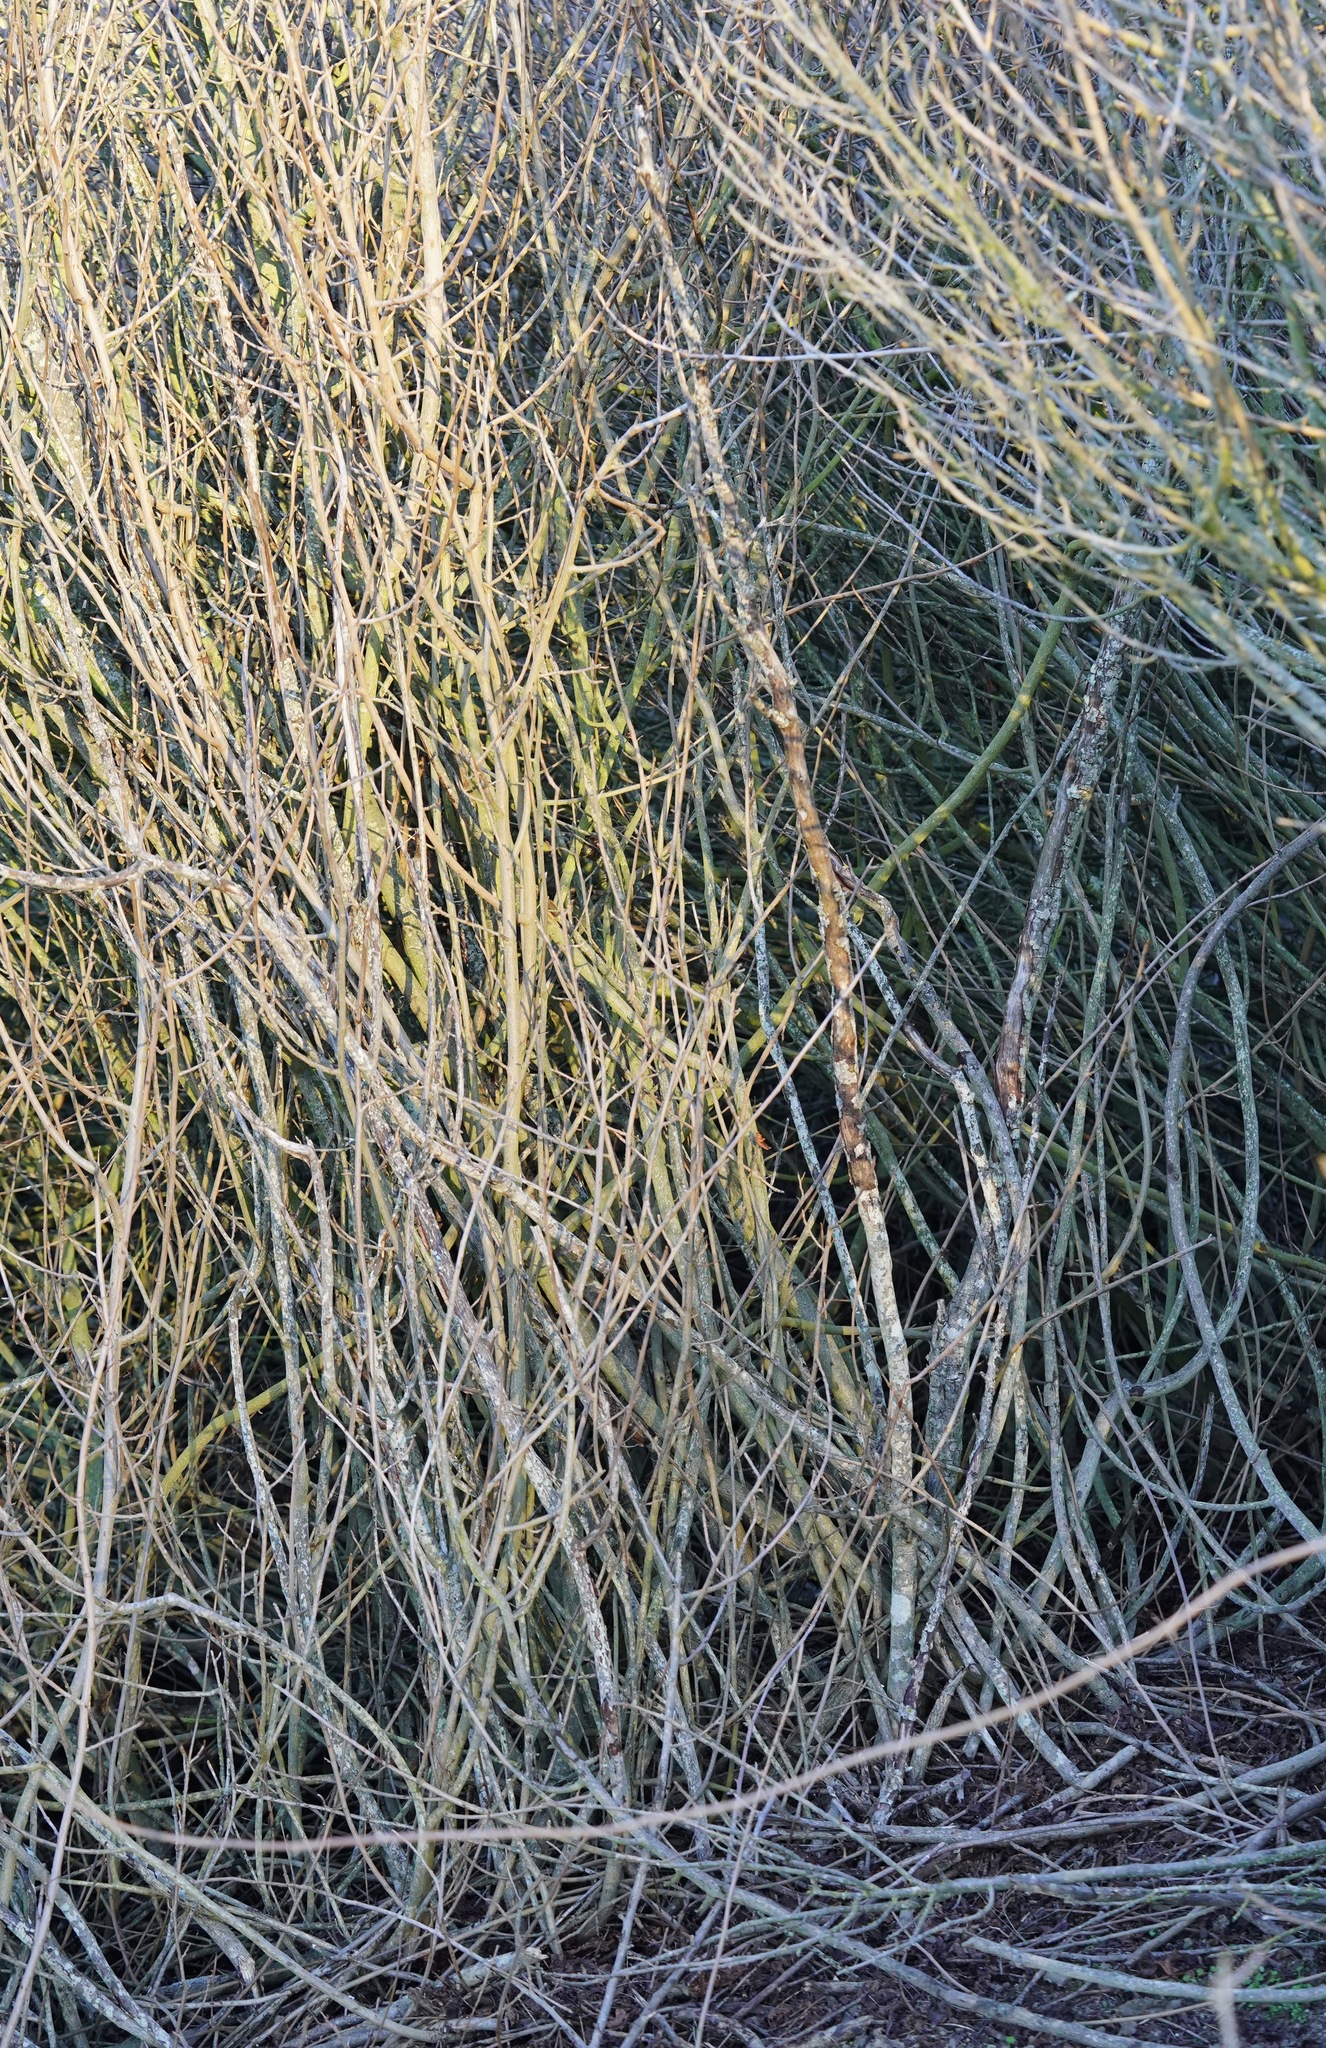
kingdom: Plantae
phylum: Tracheophyta
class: Magnoliopsida
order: Sapindales
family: Anacardiaceae
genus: Toxicodendron
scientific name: Toxicodendron diversilobum
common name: Pacific poison-oak
